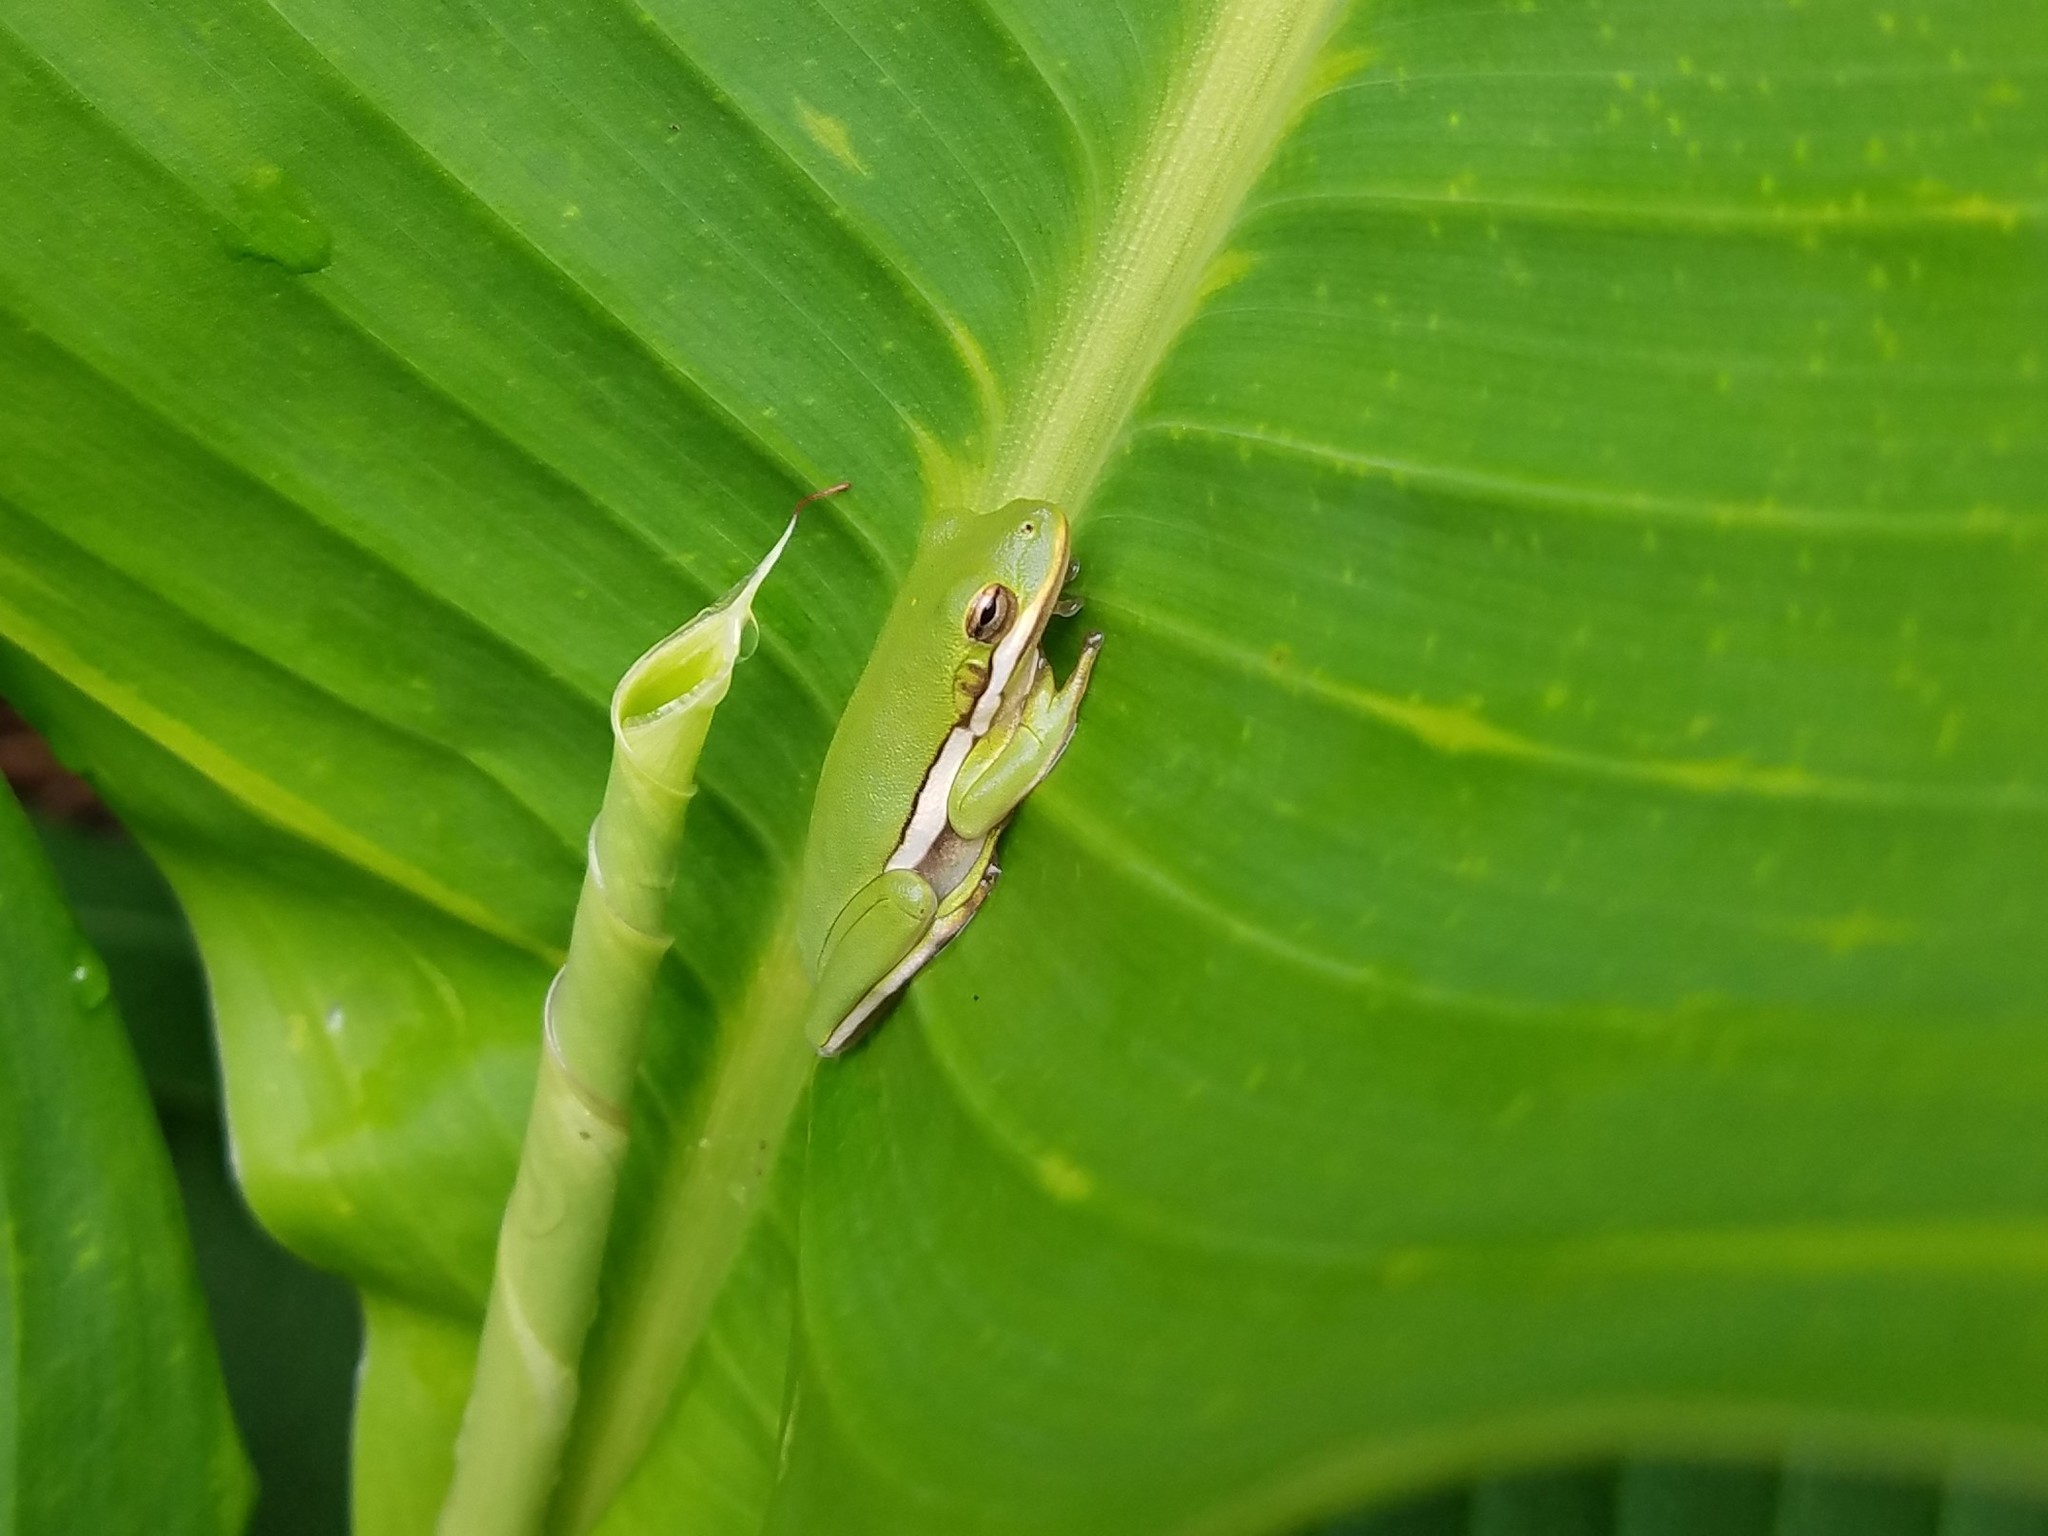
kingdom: Animalia
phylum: Chordata
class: Amphibia
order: Anura
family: Hylidae
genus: Dryophytes
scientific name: Dryophytes cinereus
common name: Green treefrog
